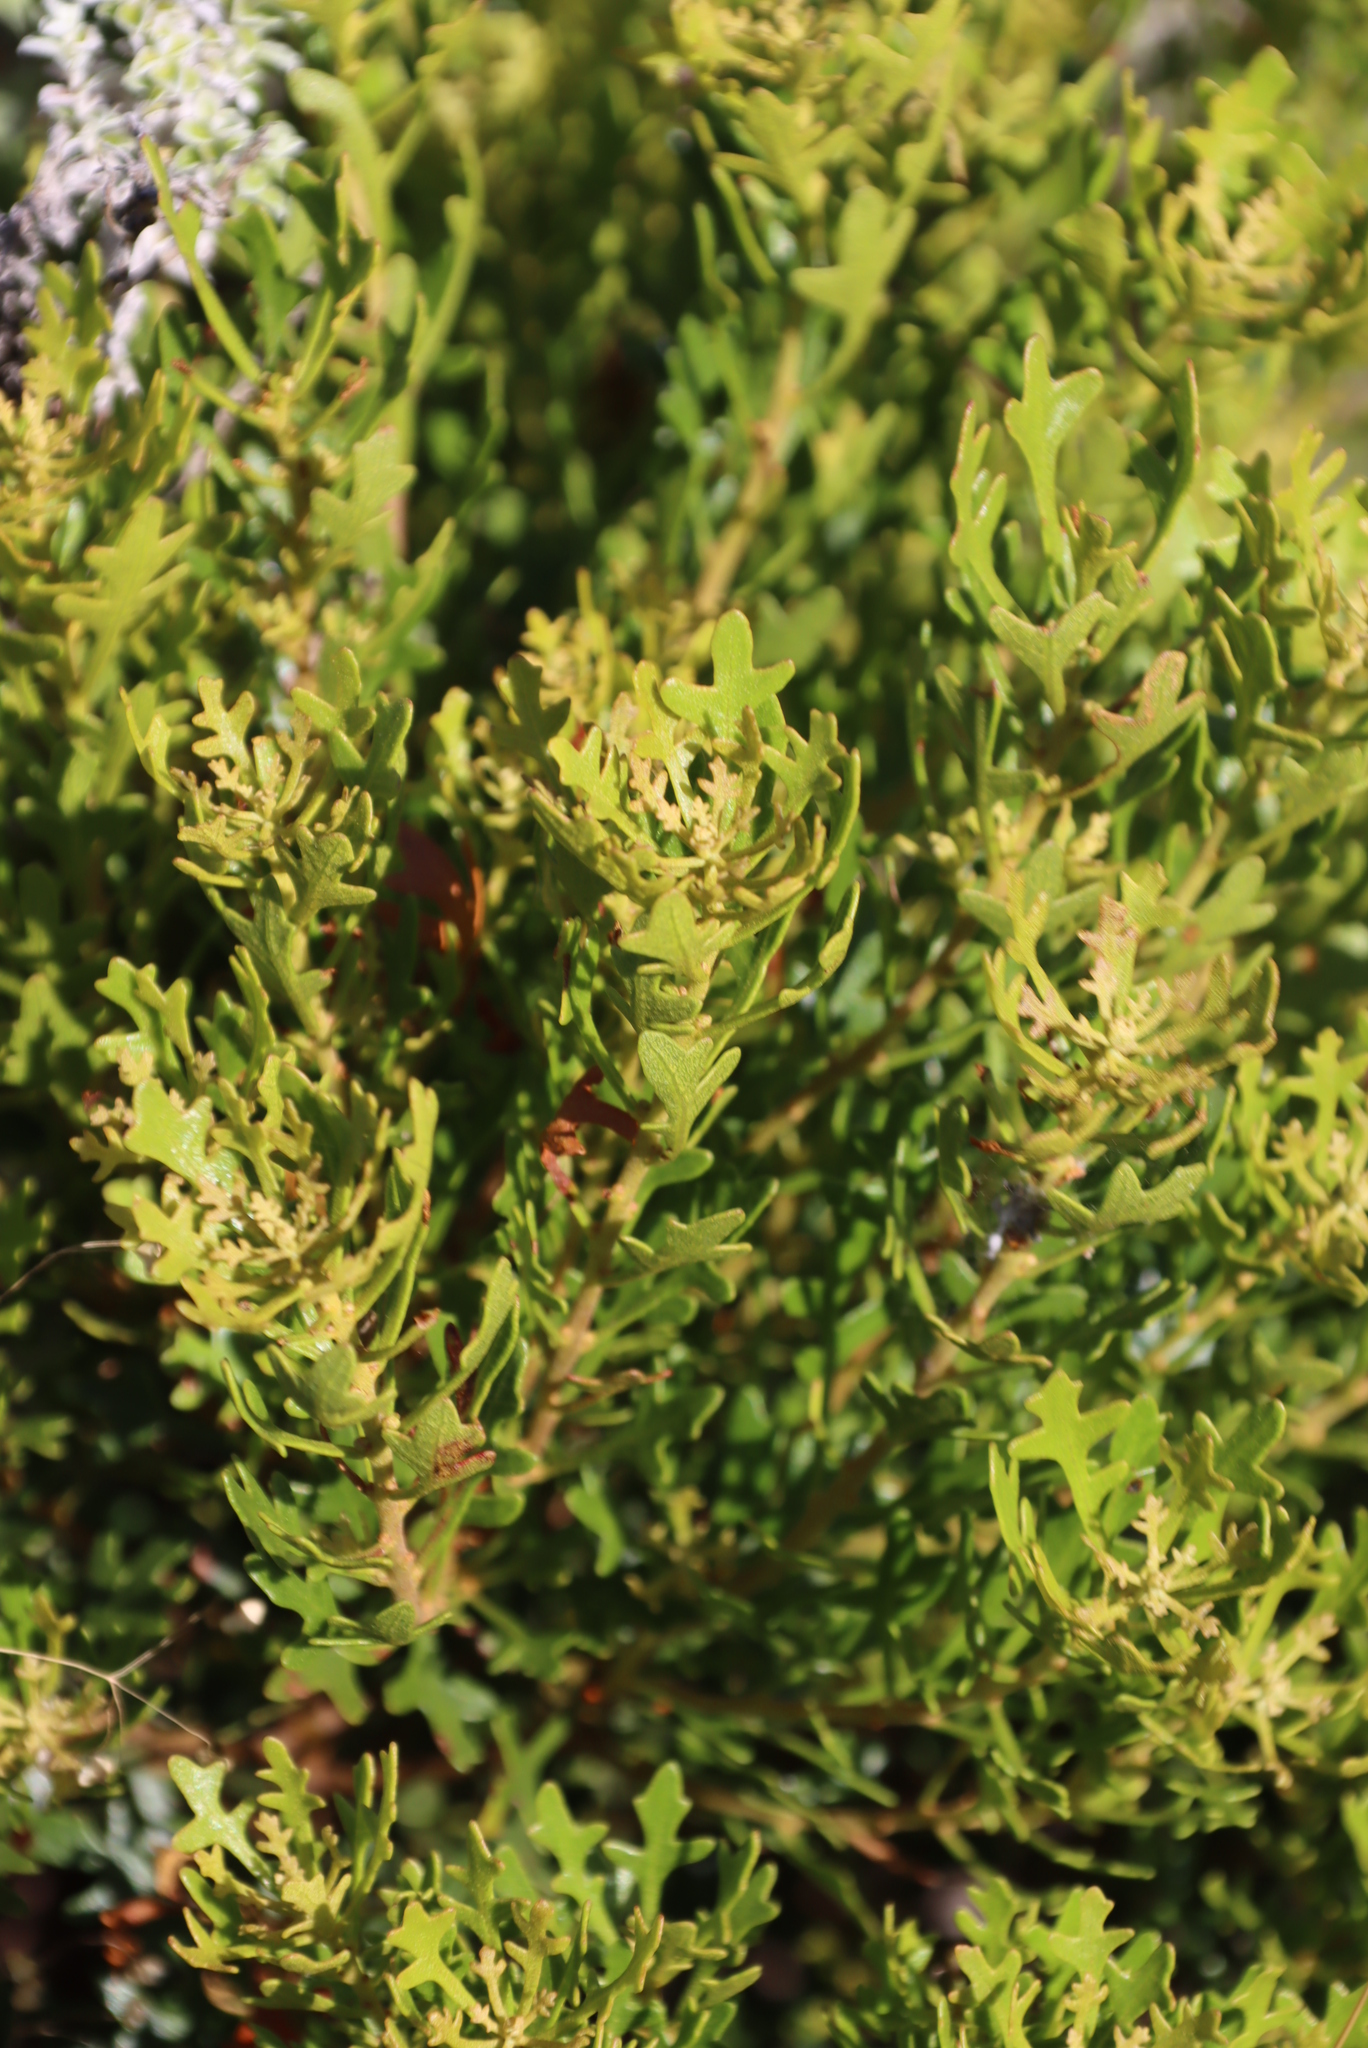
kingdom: Plantae
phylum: Tracheophyta
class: Magnoliopsida
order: Fagales
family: Myricaceae
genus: Morella
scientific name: Morella quercifolia
